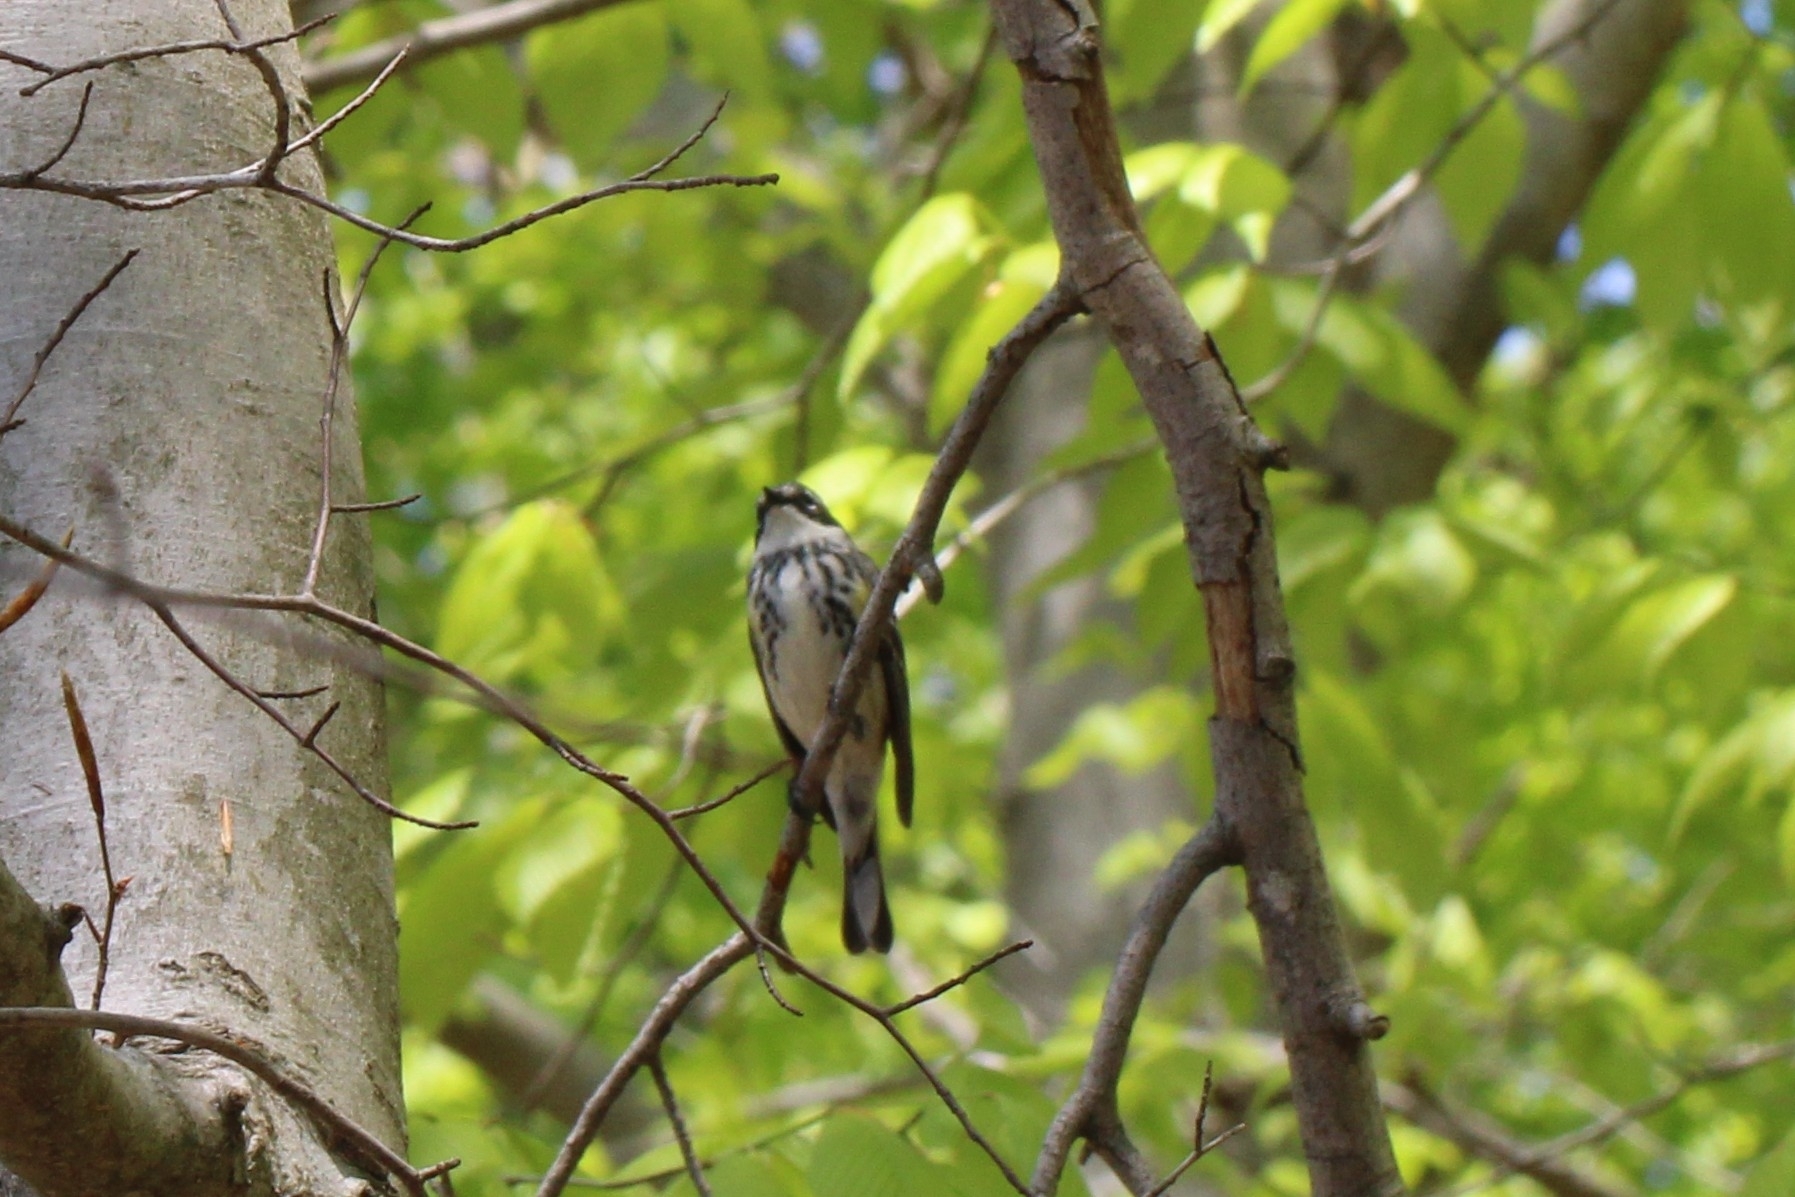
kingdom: Animalia
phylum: Chordata
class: Aves
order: Passeriformes
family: Parulidae
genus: Setophaga
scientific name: Setophaga coronata
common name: Myrtle warbler
